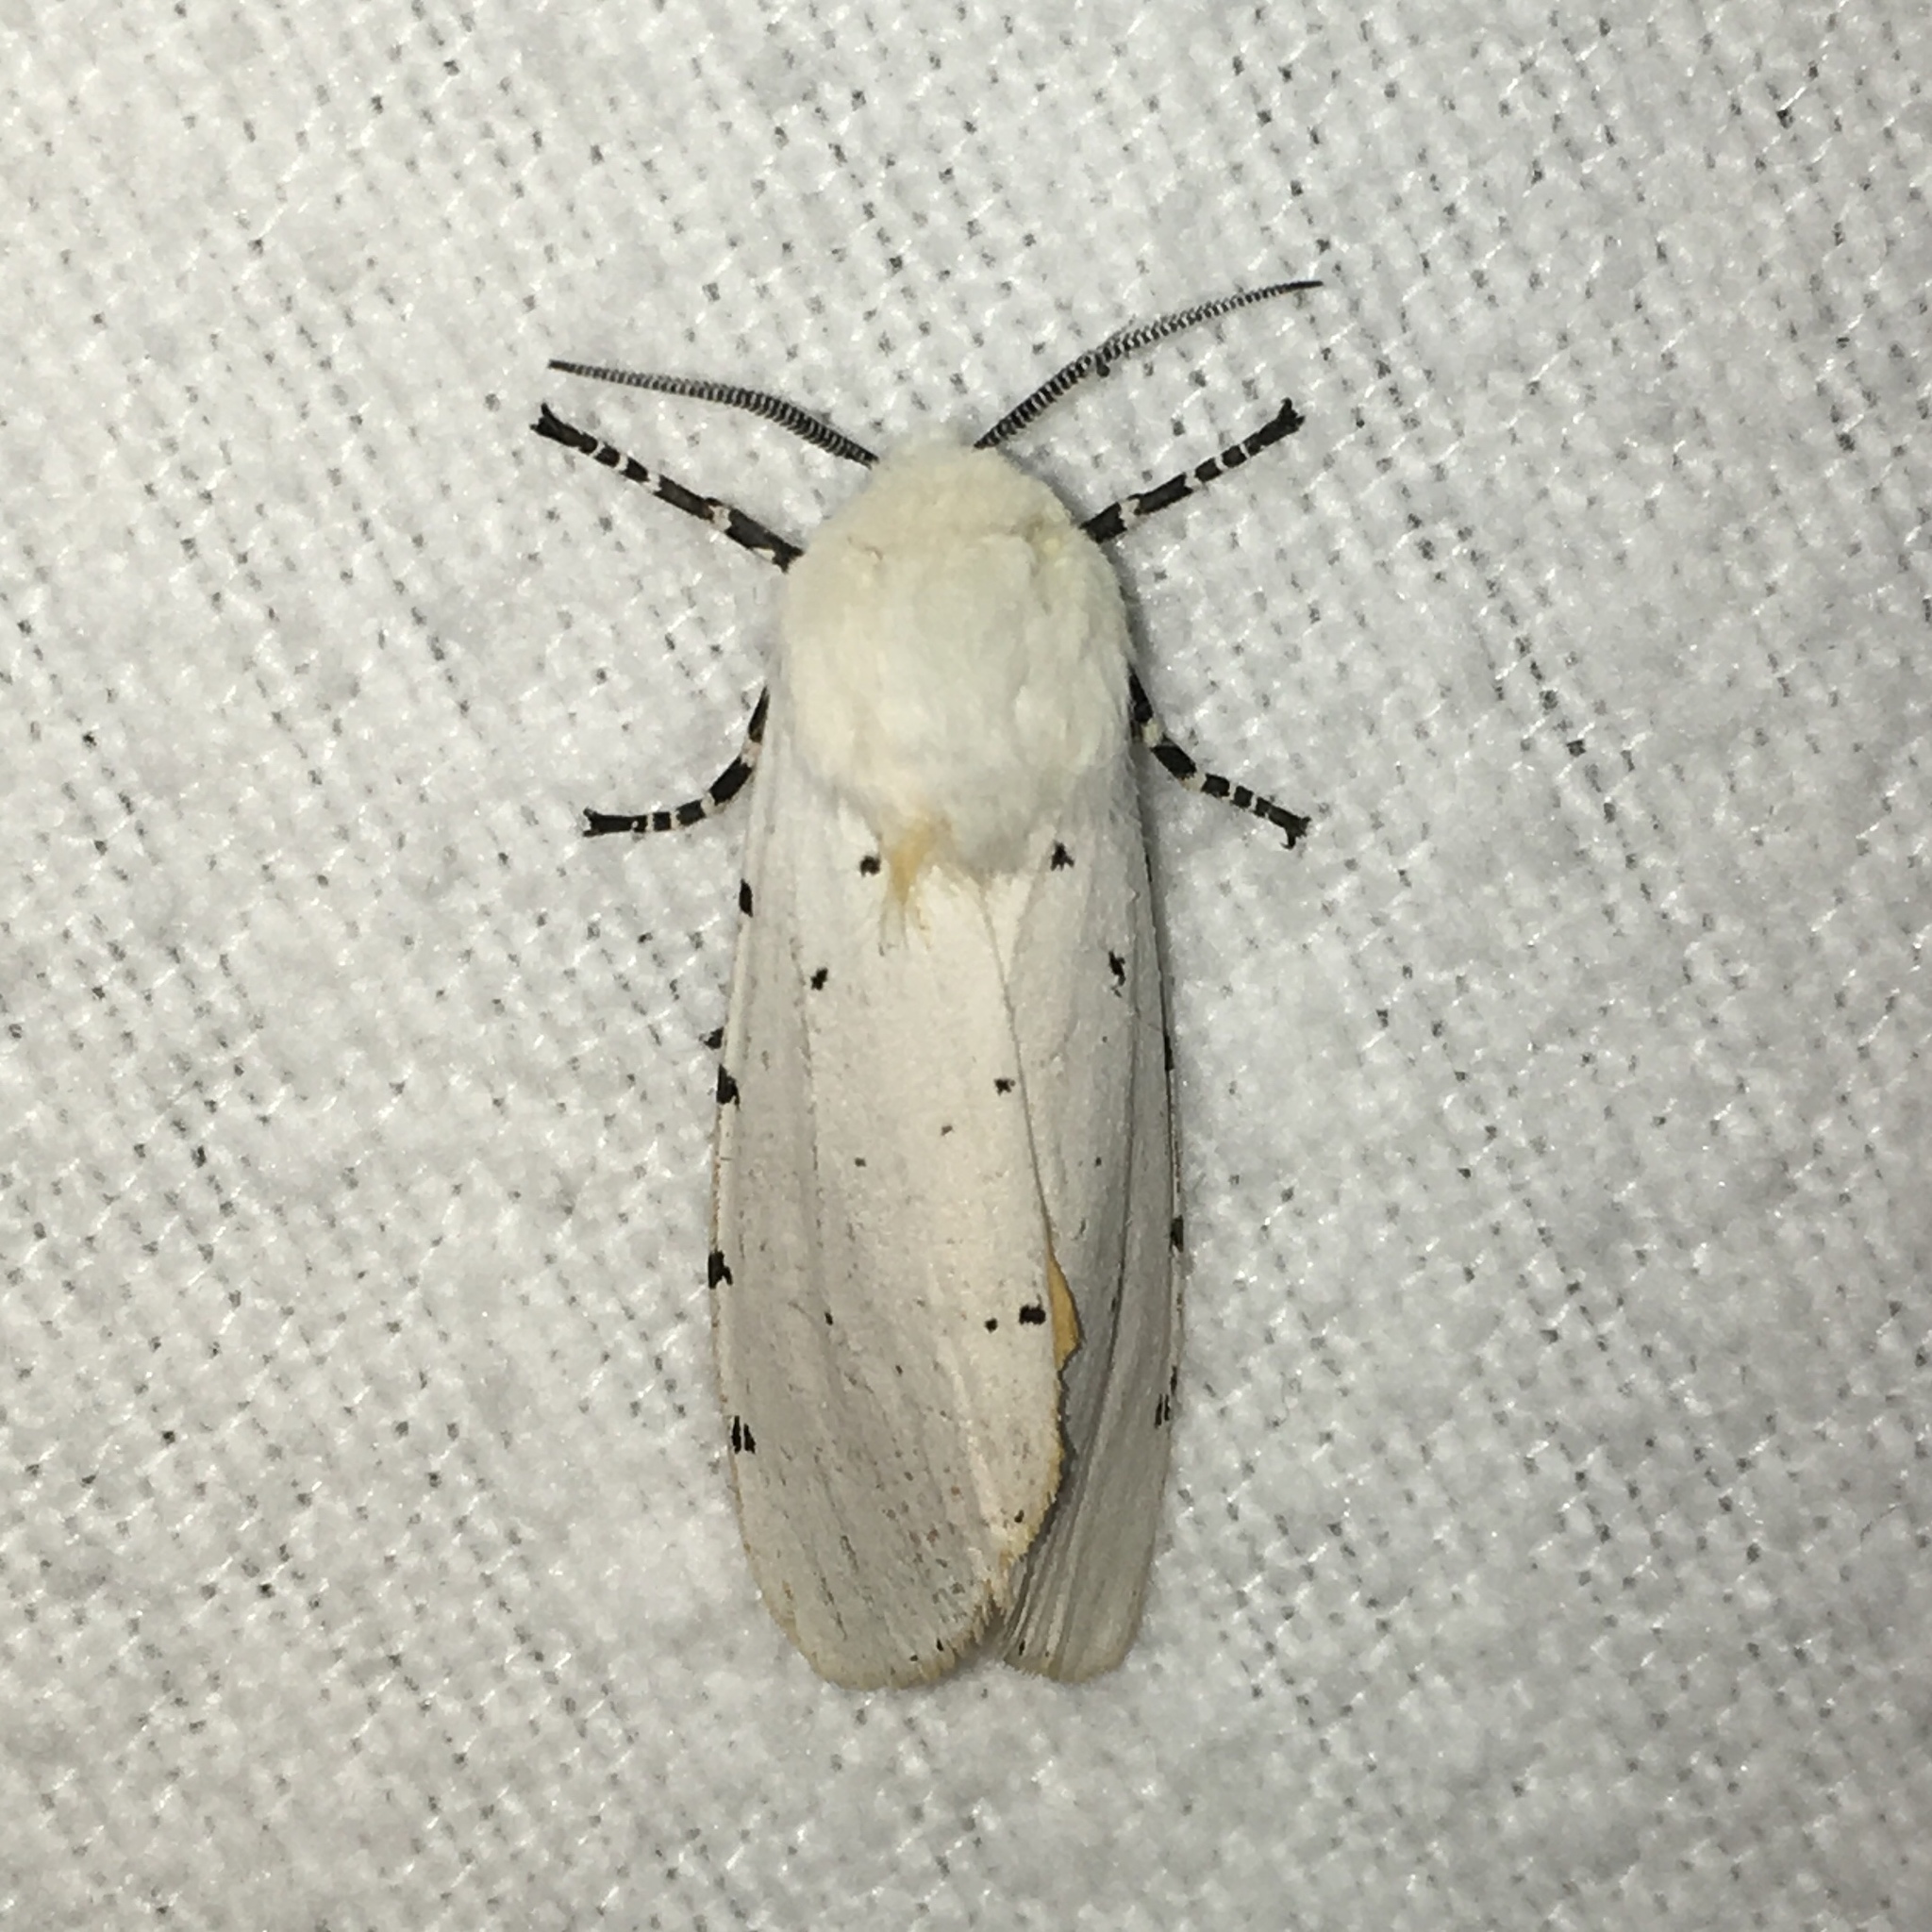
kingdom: Animalia
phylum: Arthropoda
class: Insecta
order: Lepidoptera
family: Erebidae
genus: Estigmene
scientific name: Estigmene acrea
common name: Salt marsh moth
